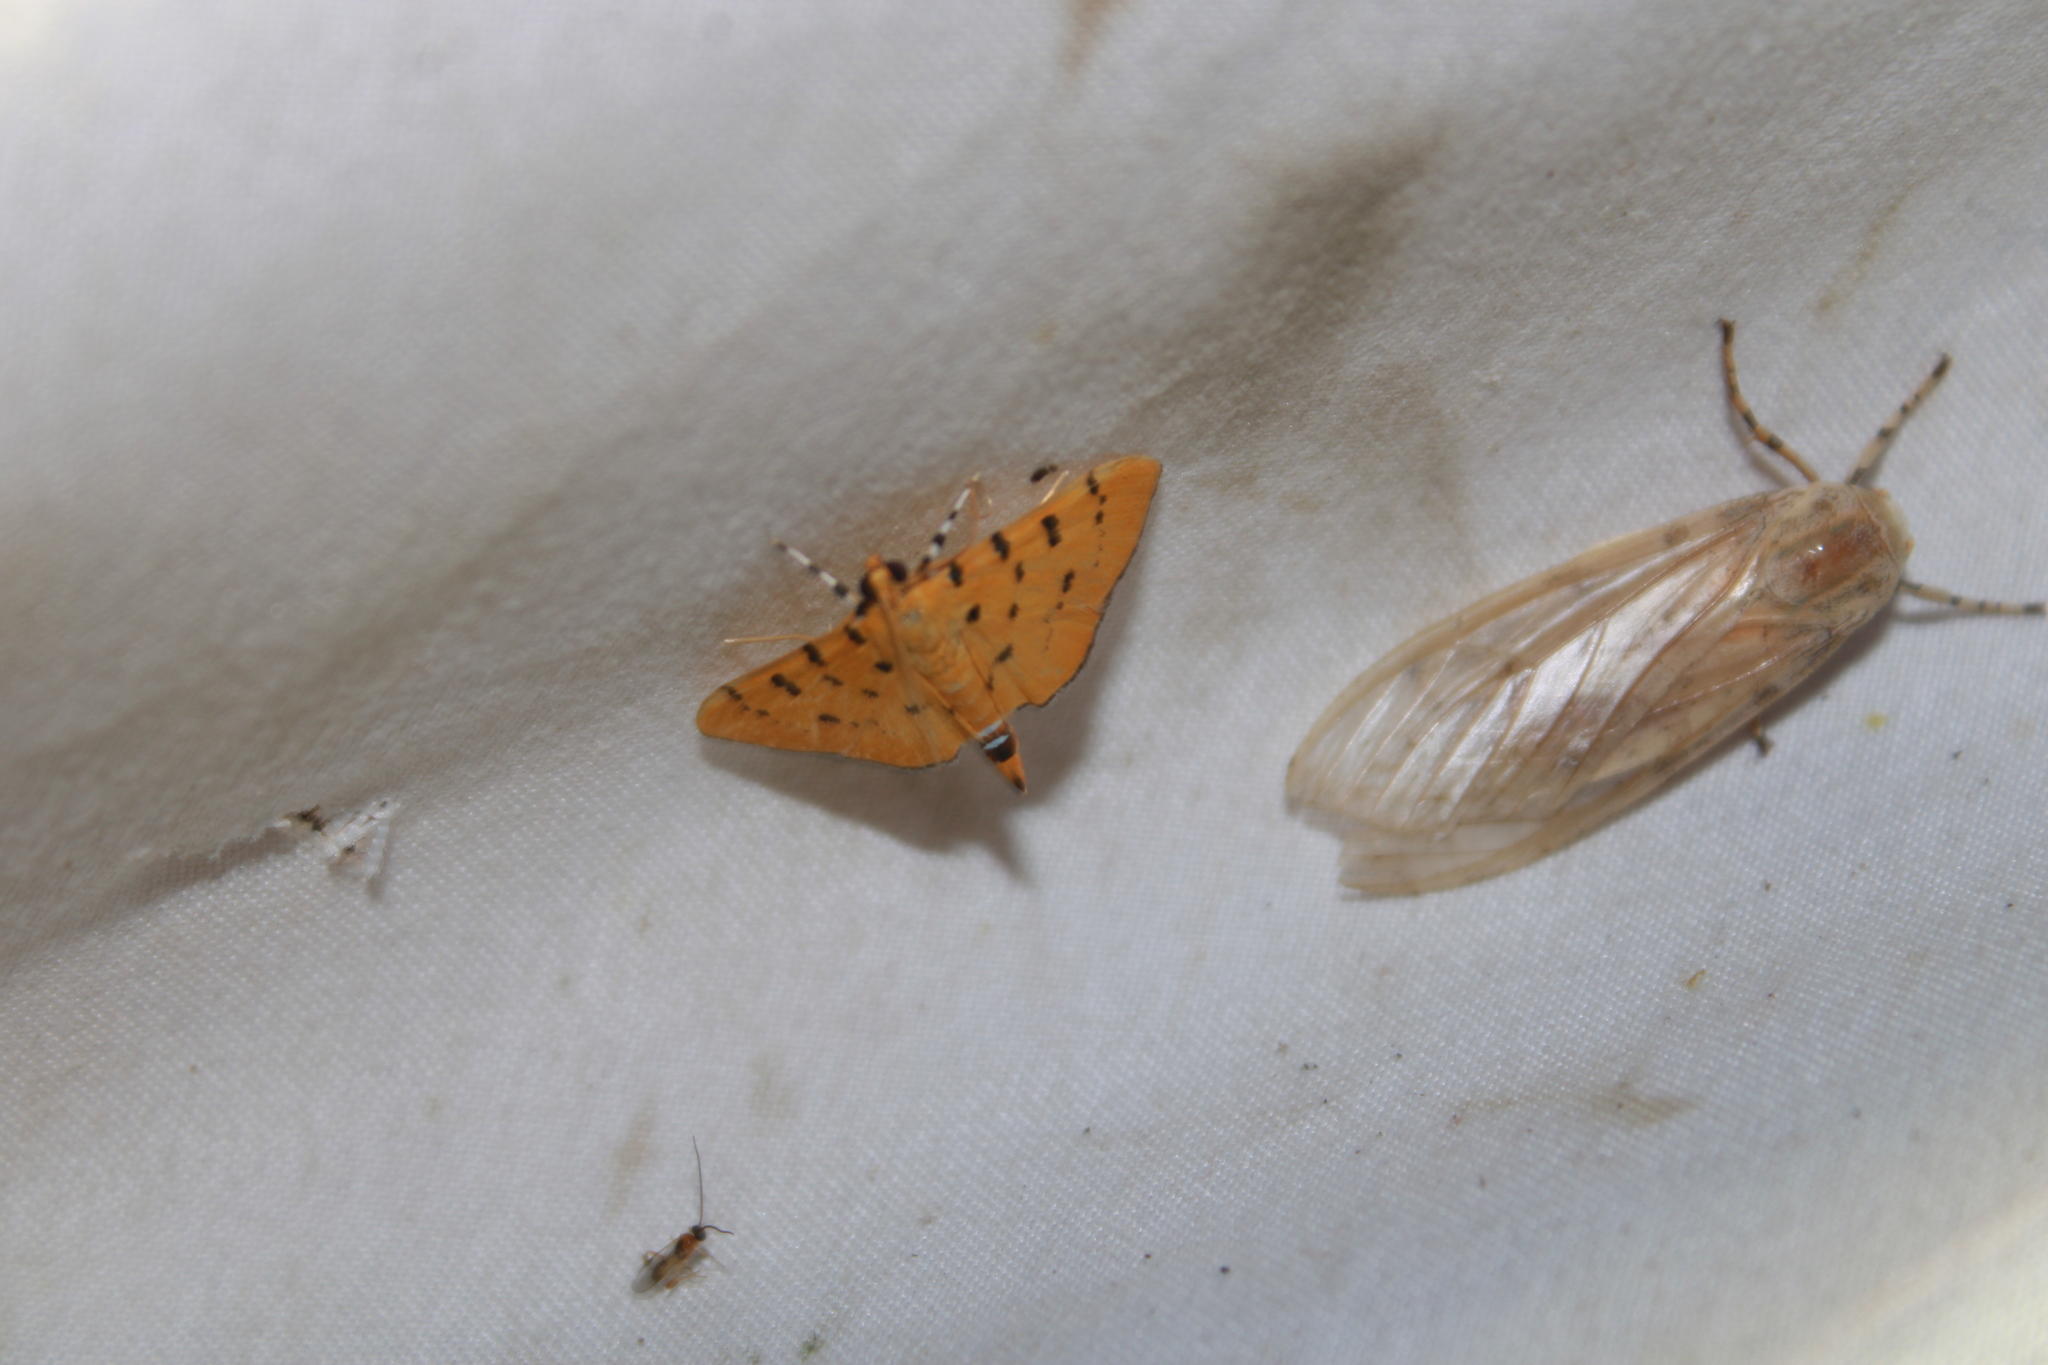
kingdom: Animalia
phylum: Arthropoda
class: Insecta
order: Lepidoptera
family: Crambidae
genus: Phaedropsis
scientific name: Phaedropsis stictigramma
